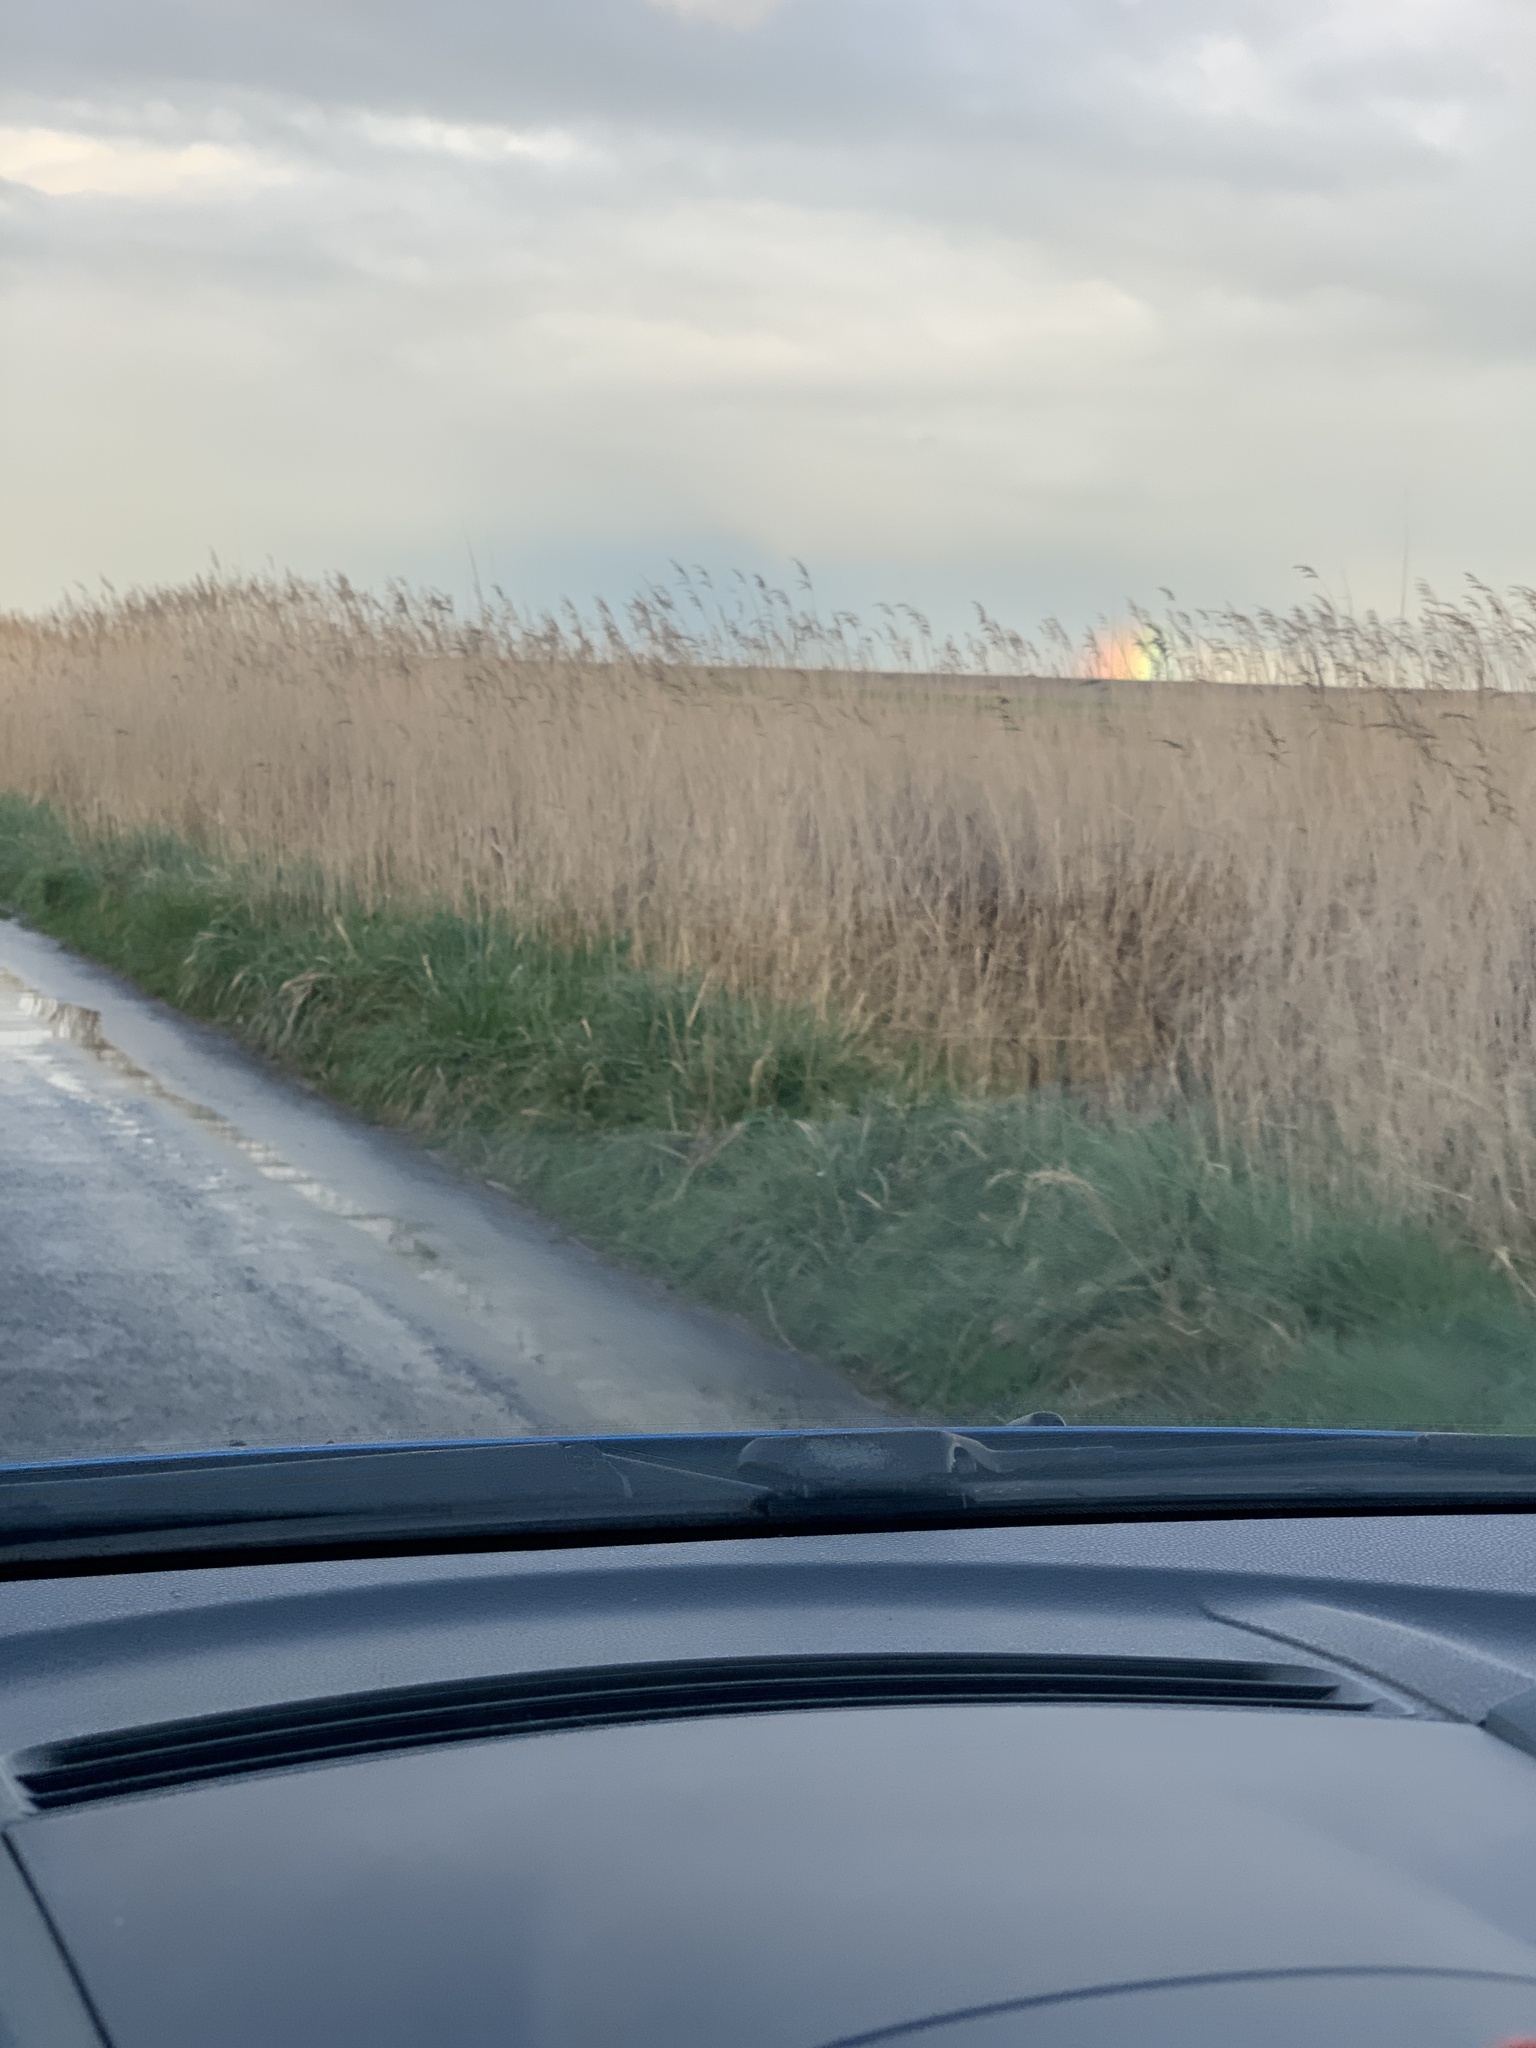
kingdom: Plantae
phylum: Tracheophyta
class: Liliopsida
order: Poales
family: Poaceae
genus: Phragmites
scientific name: Phragmites australis
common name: Common reed
